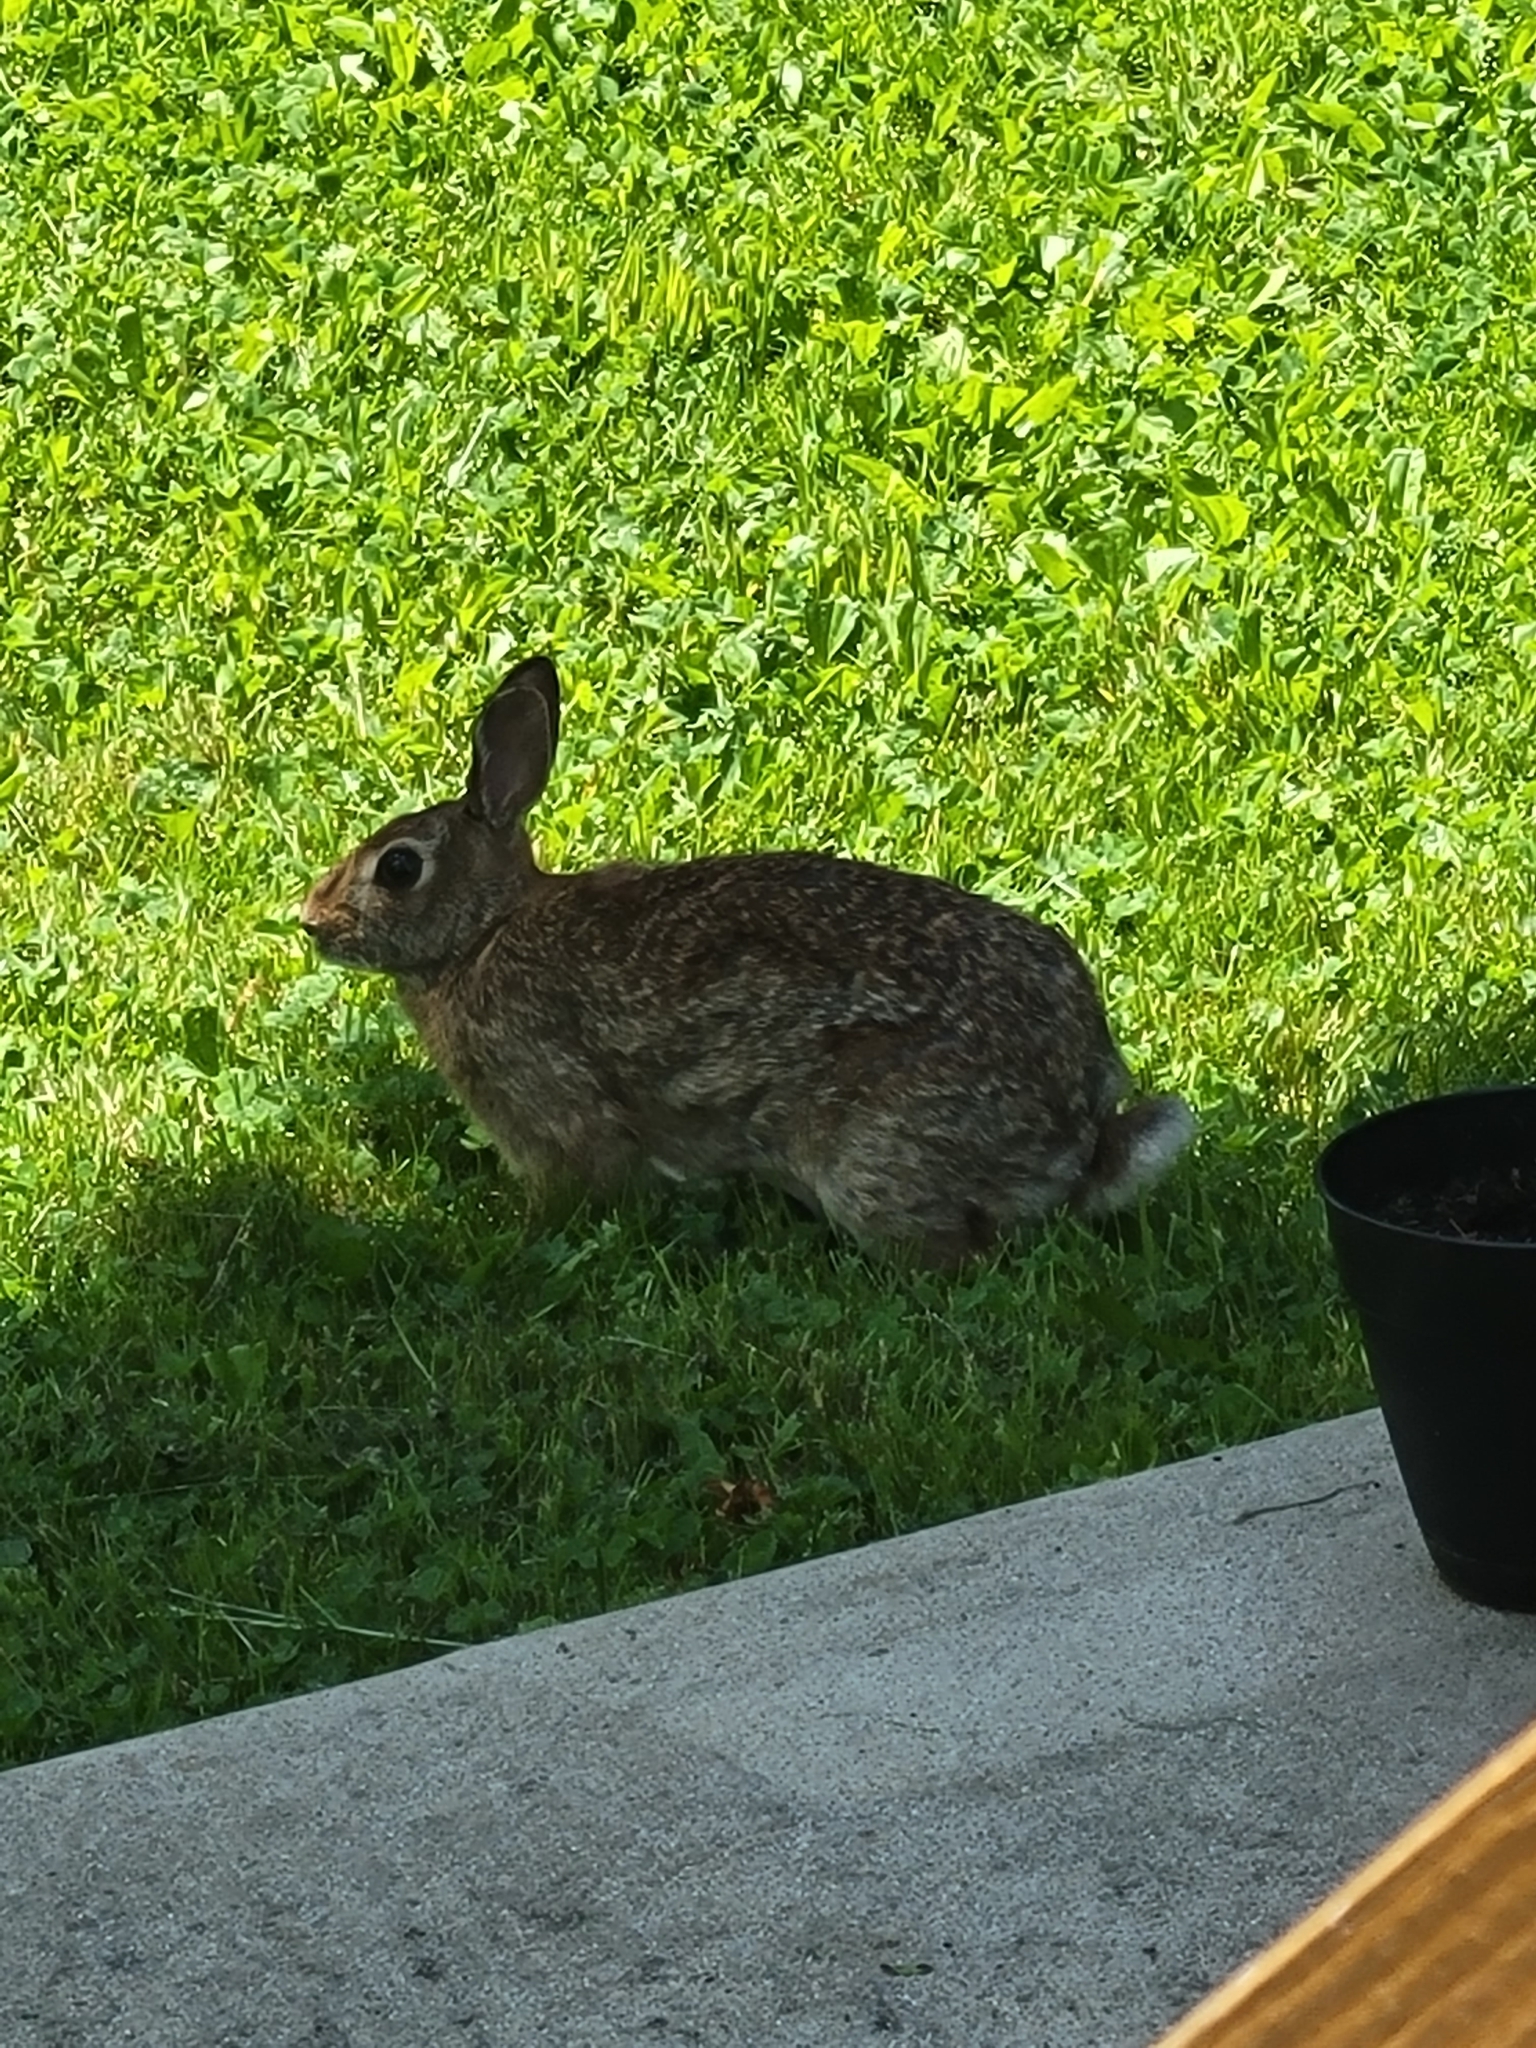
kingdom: Animalia
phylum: Chordata
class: Mammalia
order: Lagomorpha
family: Leporidae
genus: Sylvilagus
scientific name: Sylvilagus floridanus
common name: Eastern cottontail
